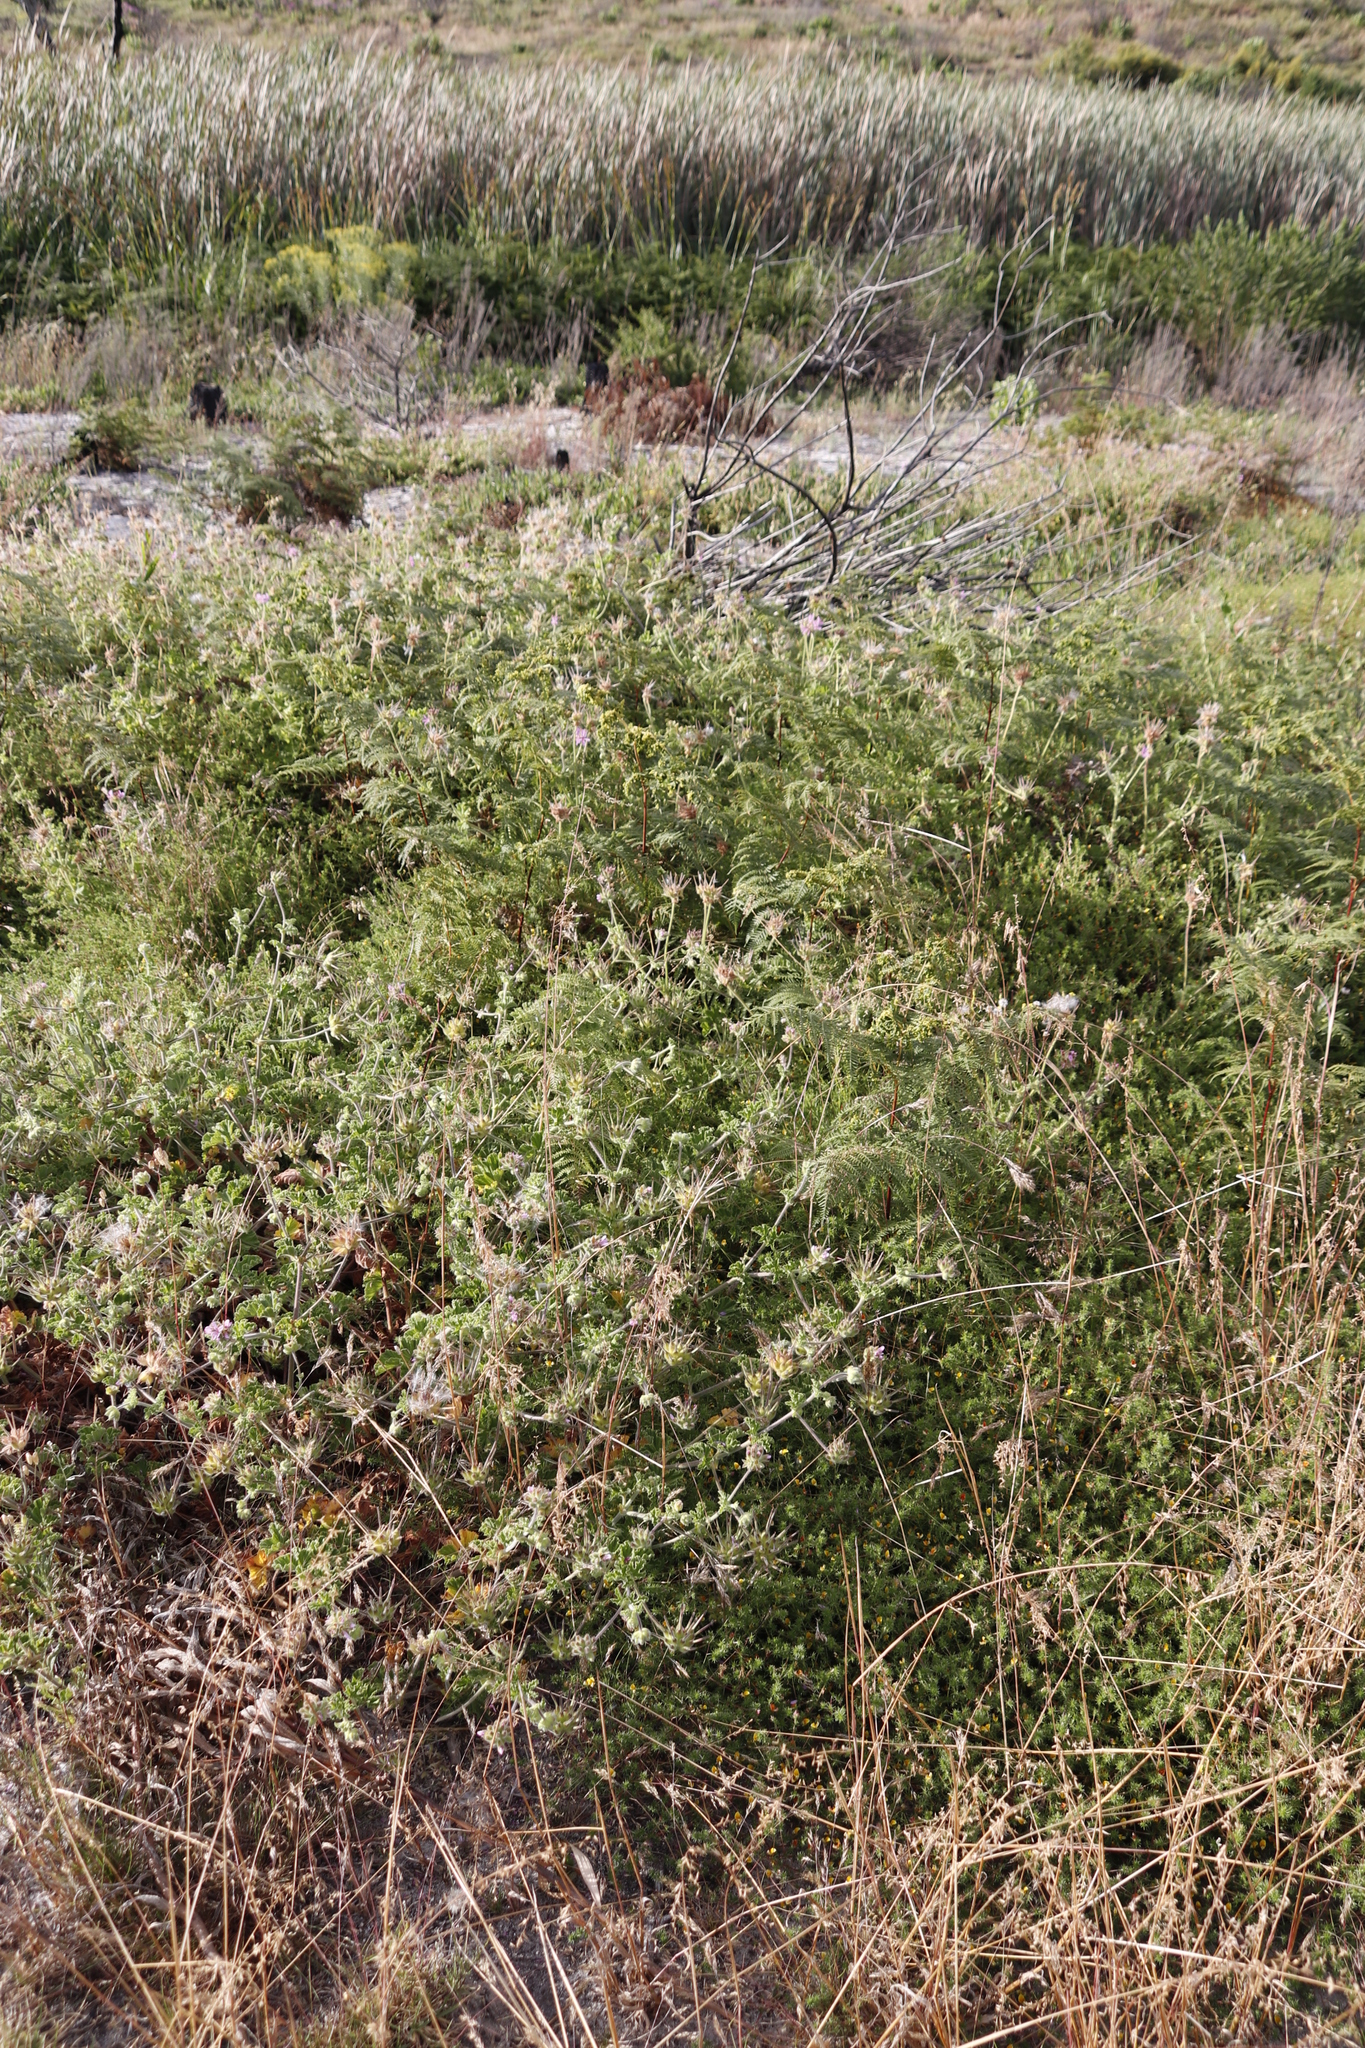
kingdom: Plantae
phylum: Tracheophyta
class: Polypodiopsida
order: Polypodiales
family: Dennstaedtiaceae
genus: Pteridium
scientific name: Pteridium aquilinum
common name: Bracken
